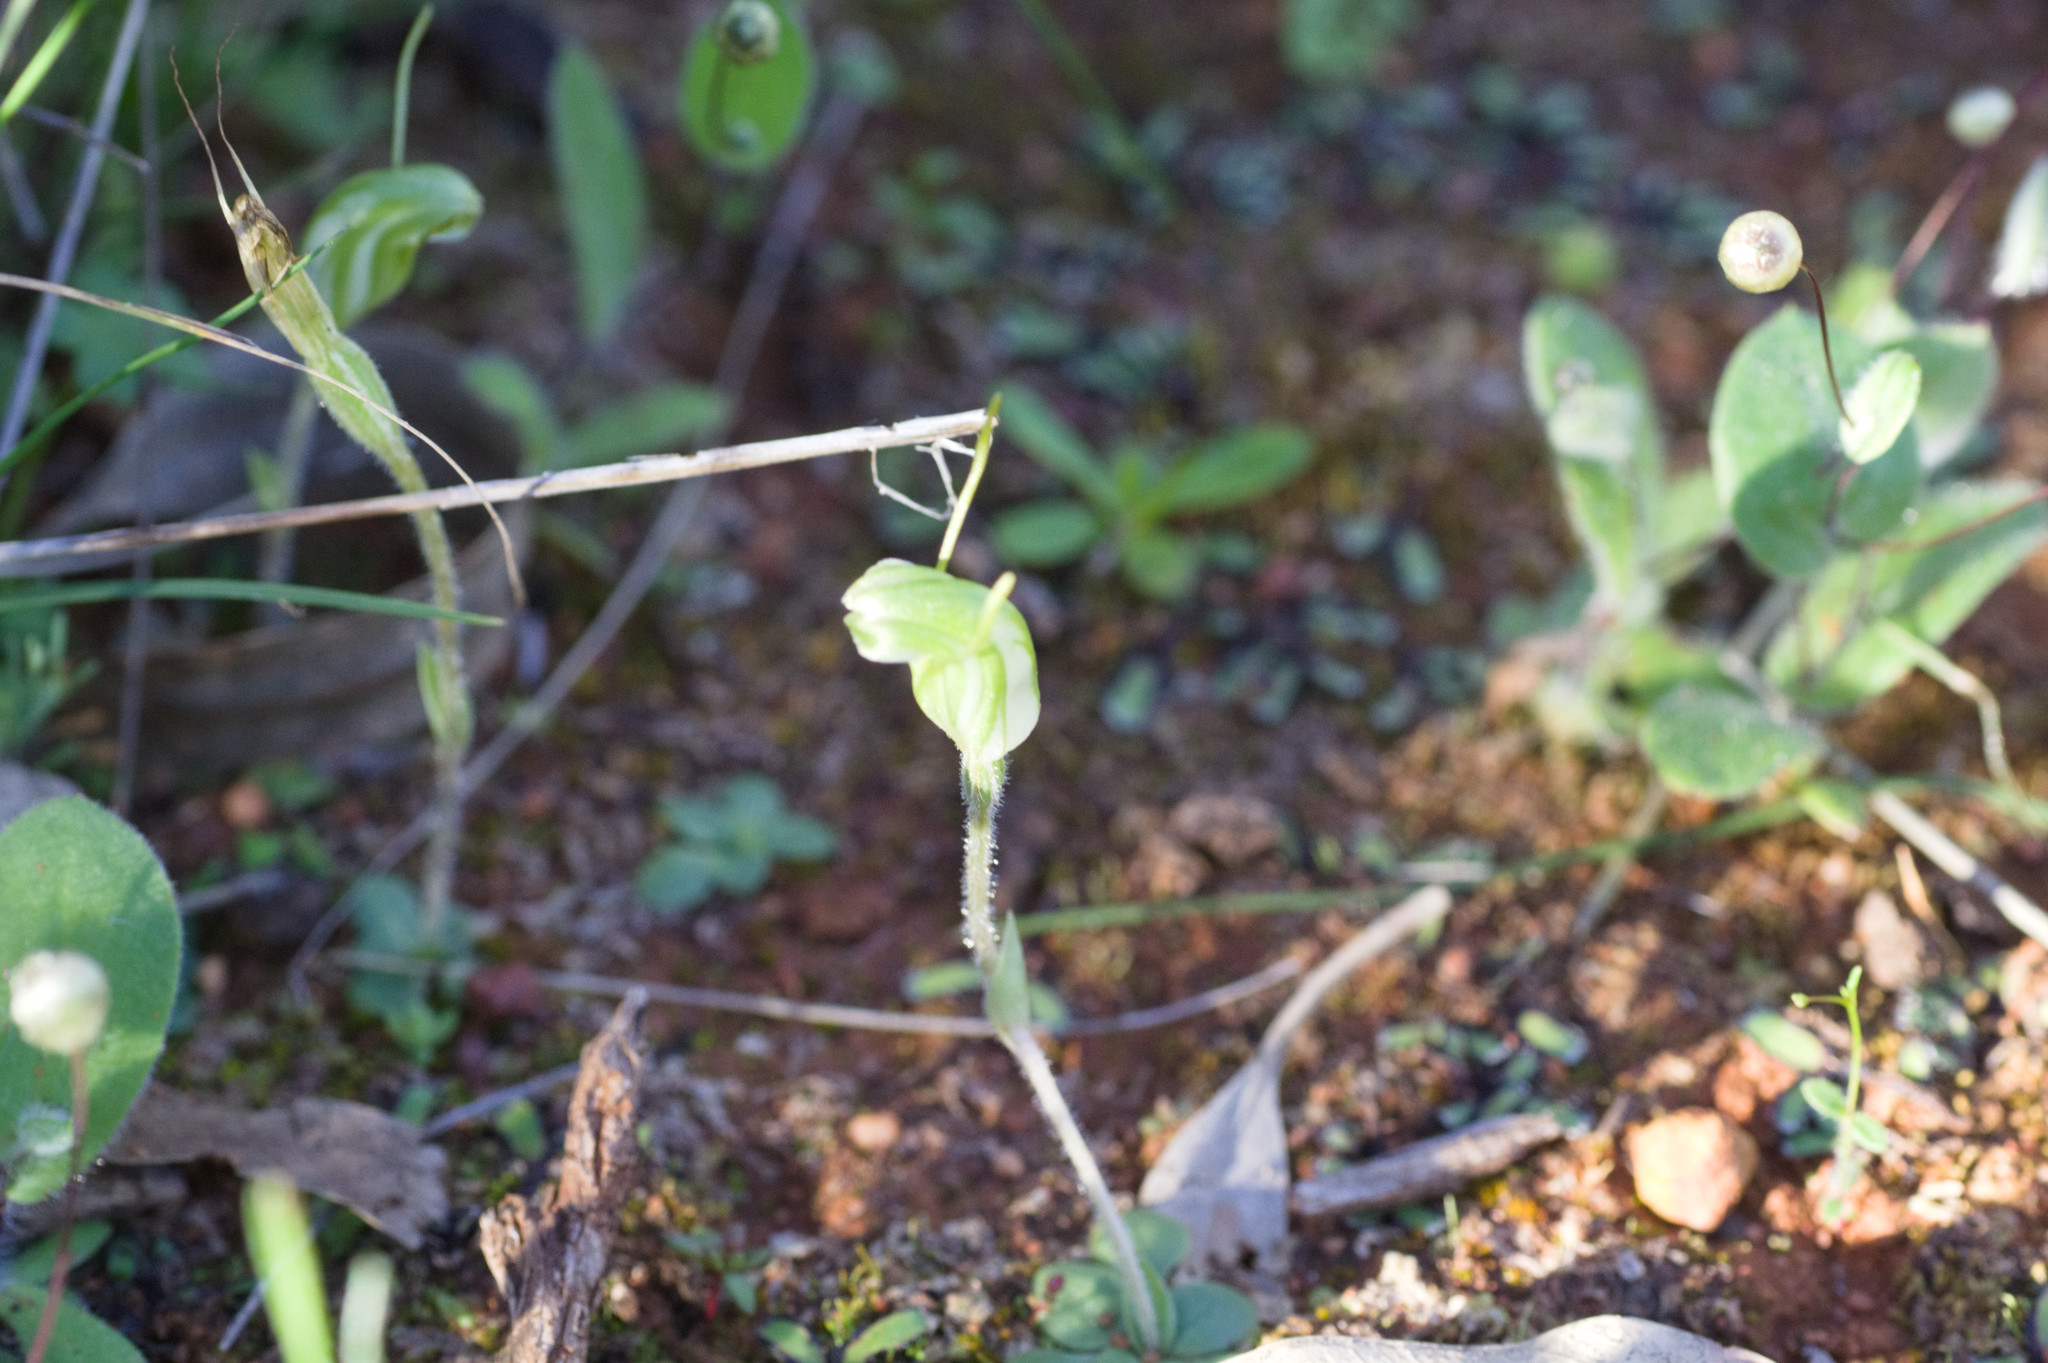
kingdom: Plantae
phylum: Tracheophyta
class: Liliopsida
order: Asparagales
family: Orchidaceae
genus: Pterostylis
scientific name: Pterostylis setulosa
